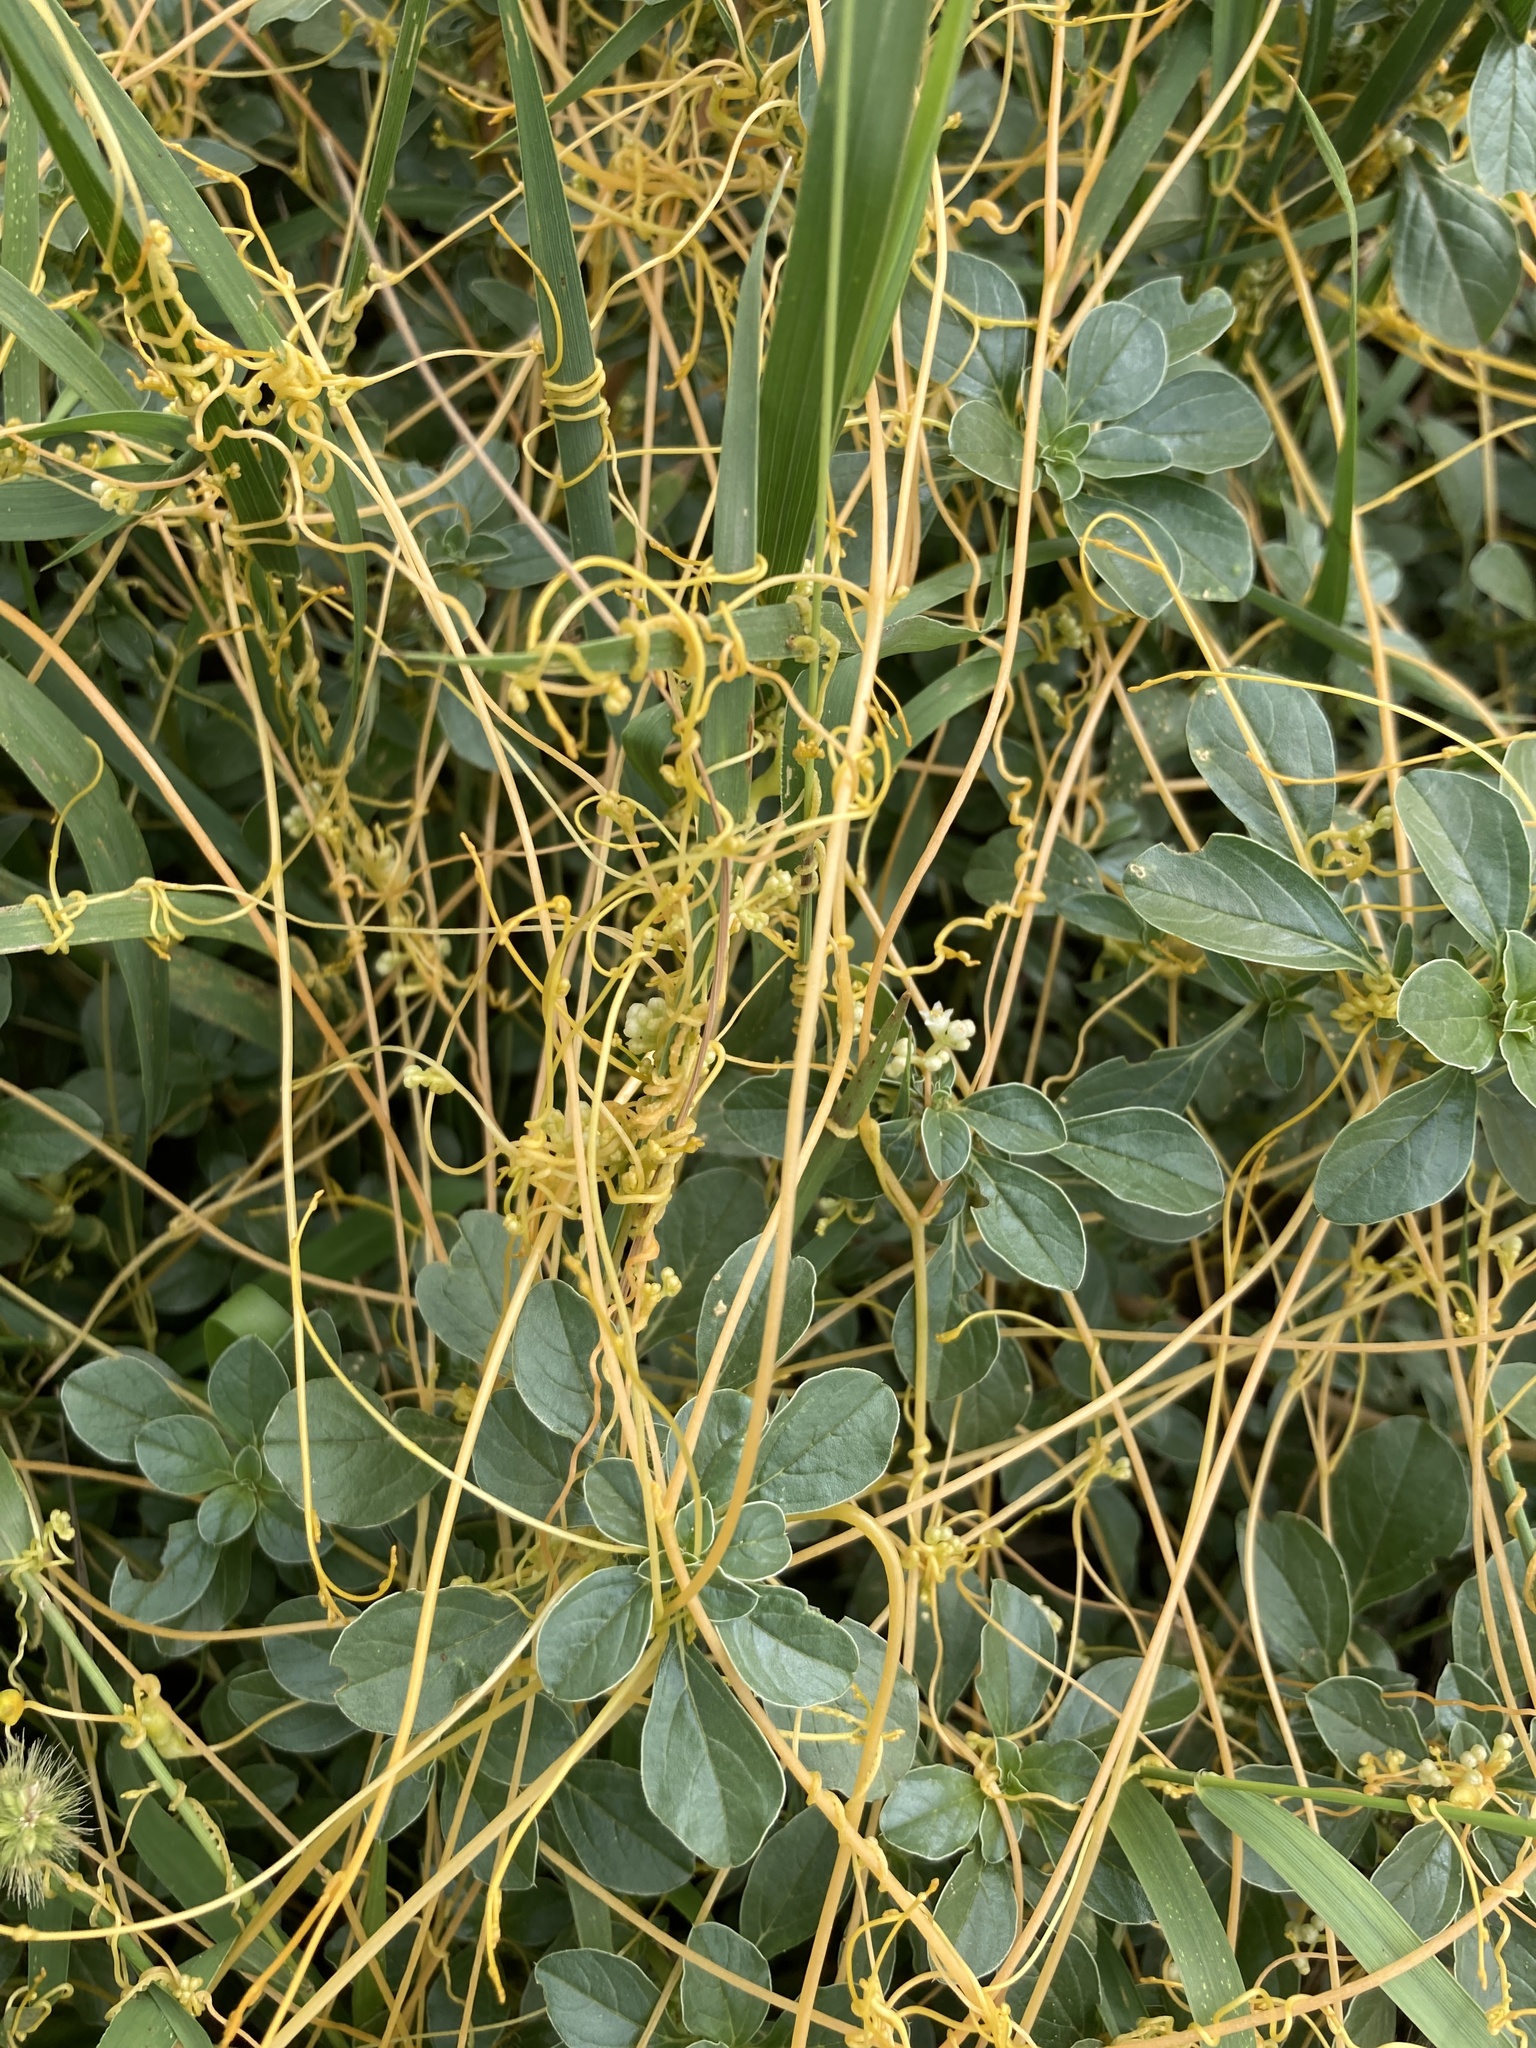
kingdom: Plantae
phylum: Tracheophyta
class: Magnoliopsida
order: Solanales
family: Convolvulaceae
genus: Cuscuta
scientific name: Cuscuta campestris
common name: Yellow dodder
